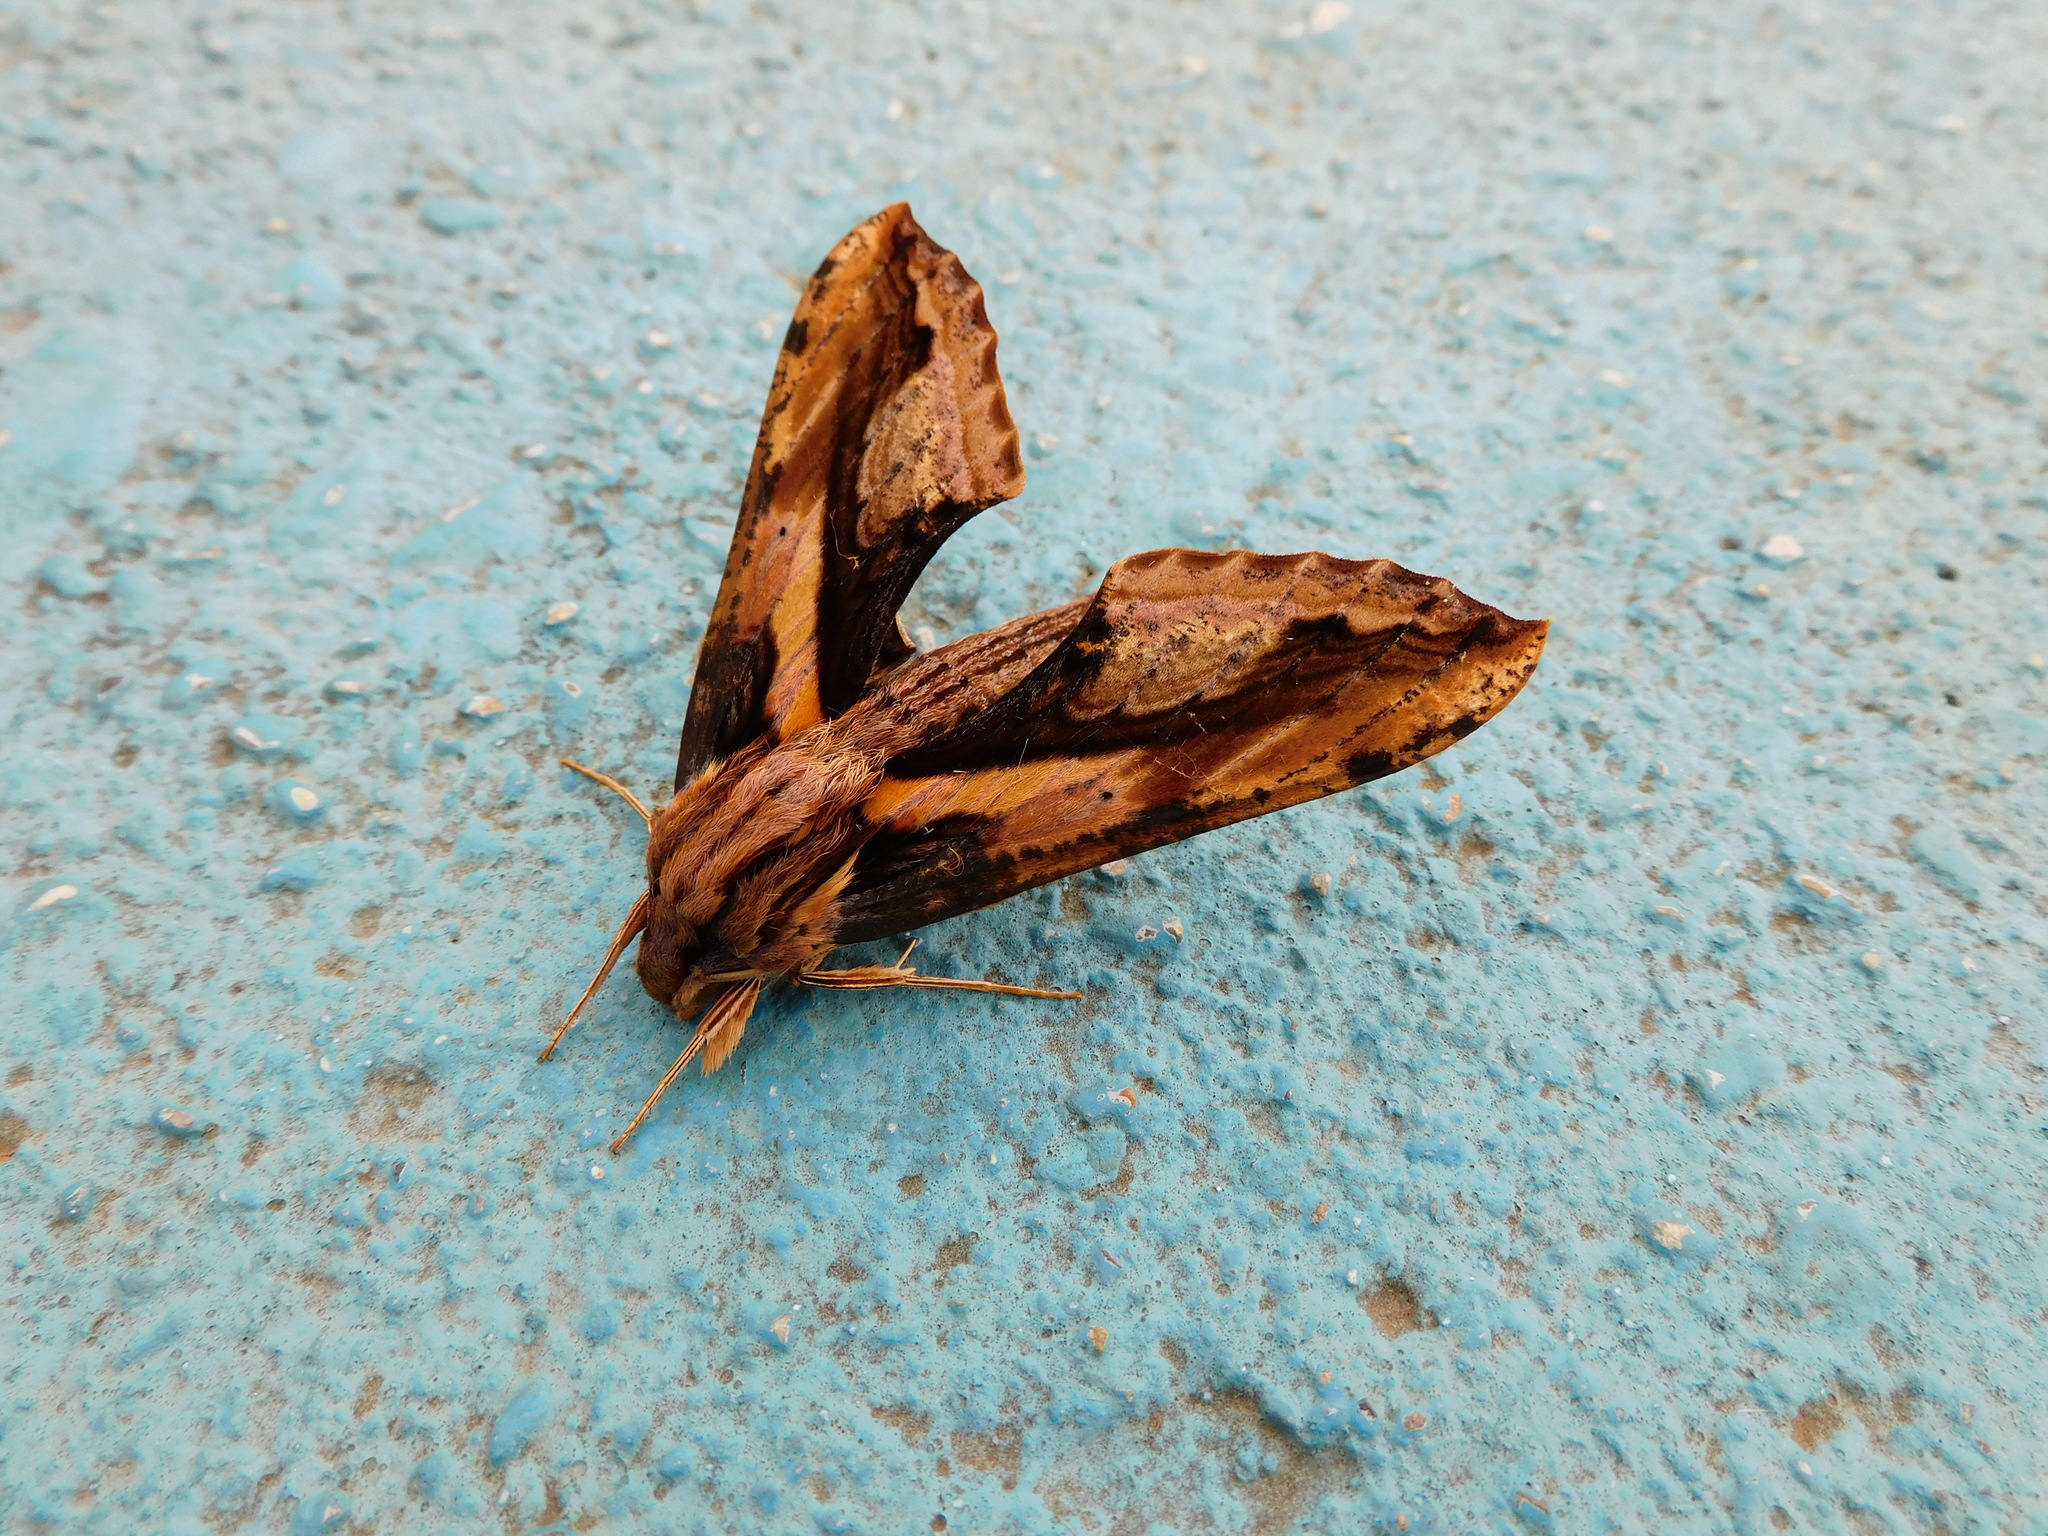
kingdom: Animalia
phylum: Arthropoda
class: Insecta
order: Lepidoptera
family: Sphingidae
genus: Xylophanes
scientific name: Xylophanes ceratomioides
